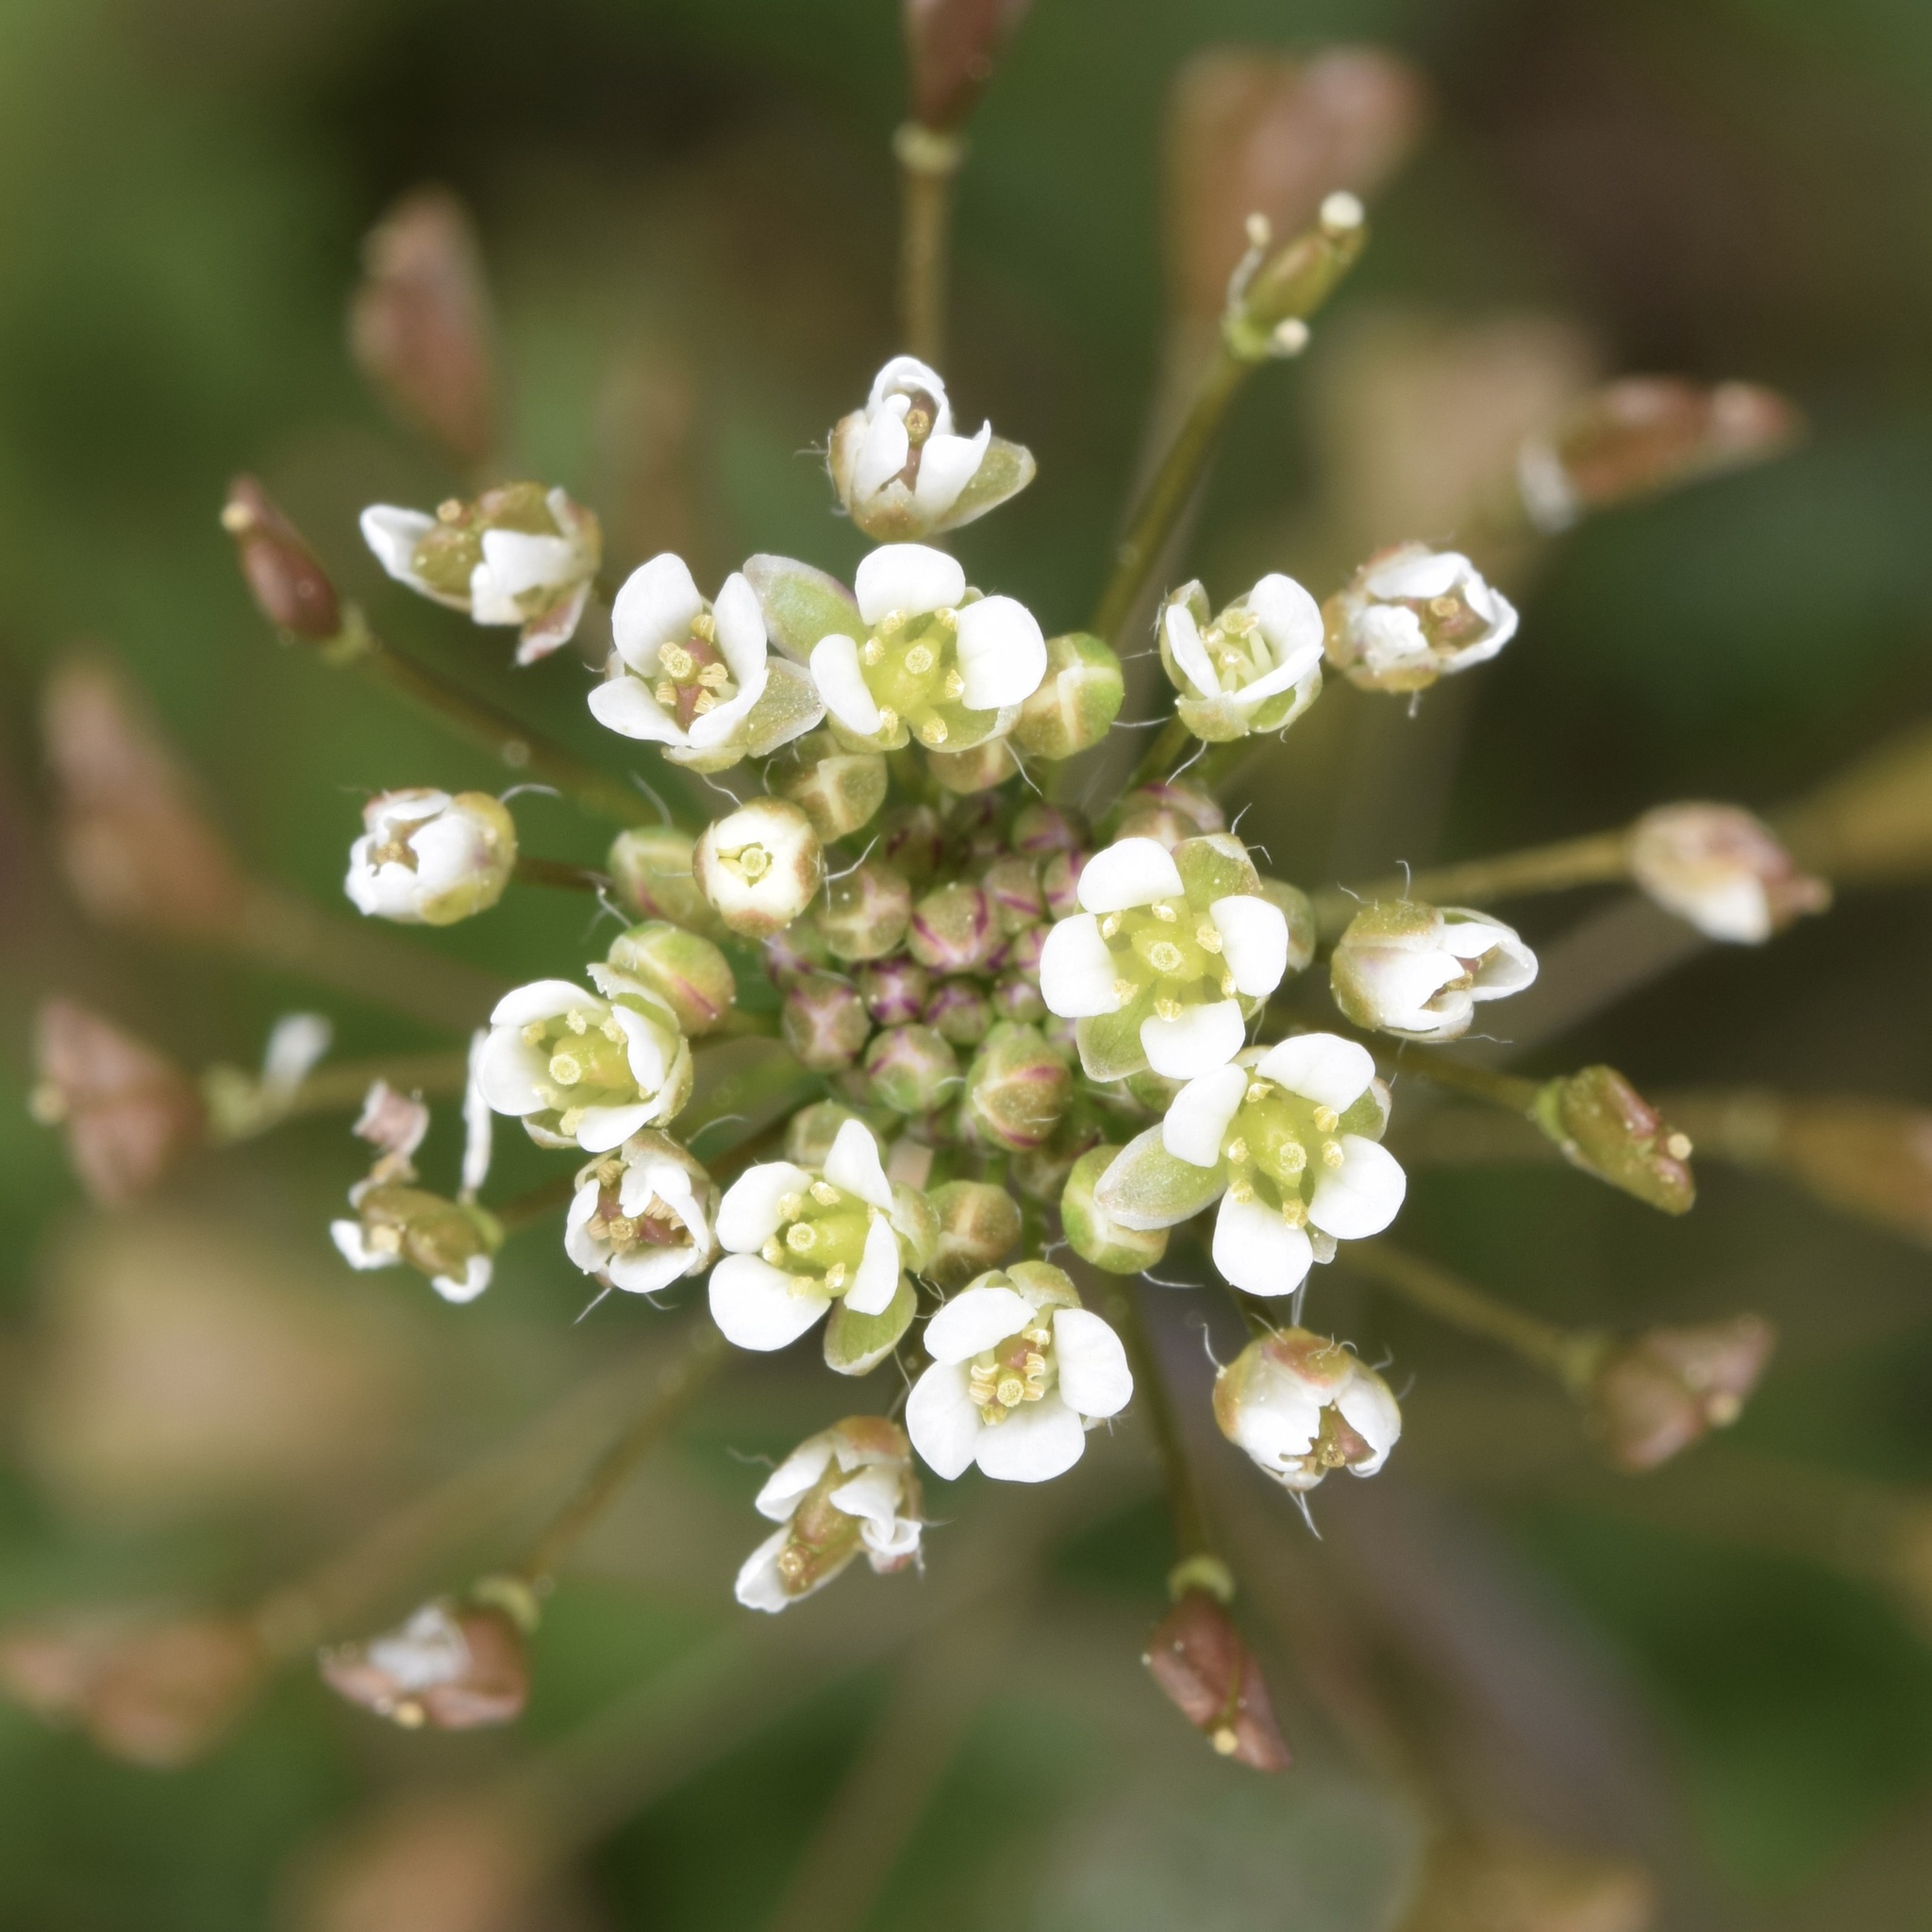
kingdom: Plantae
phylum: Tracheophyta
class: Magnoliopsida
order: Brassicales
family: Brassicaceae
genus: Capsella
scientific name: Capsella bursa-pastoris
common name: Shepherd's purse
